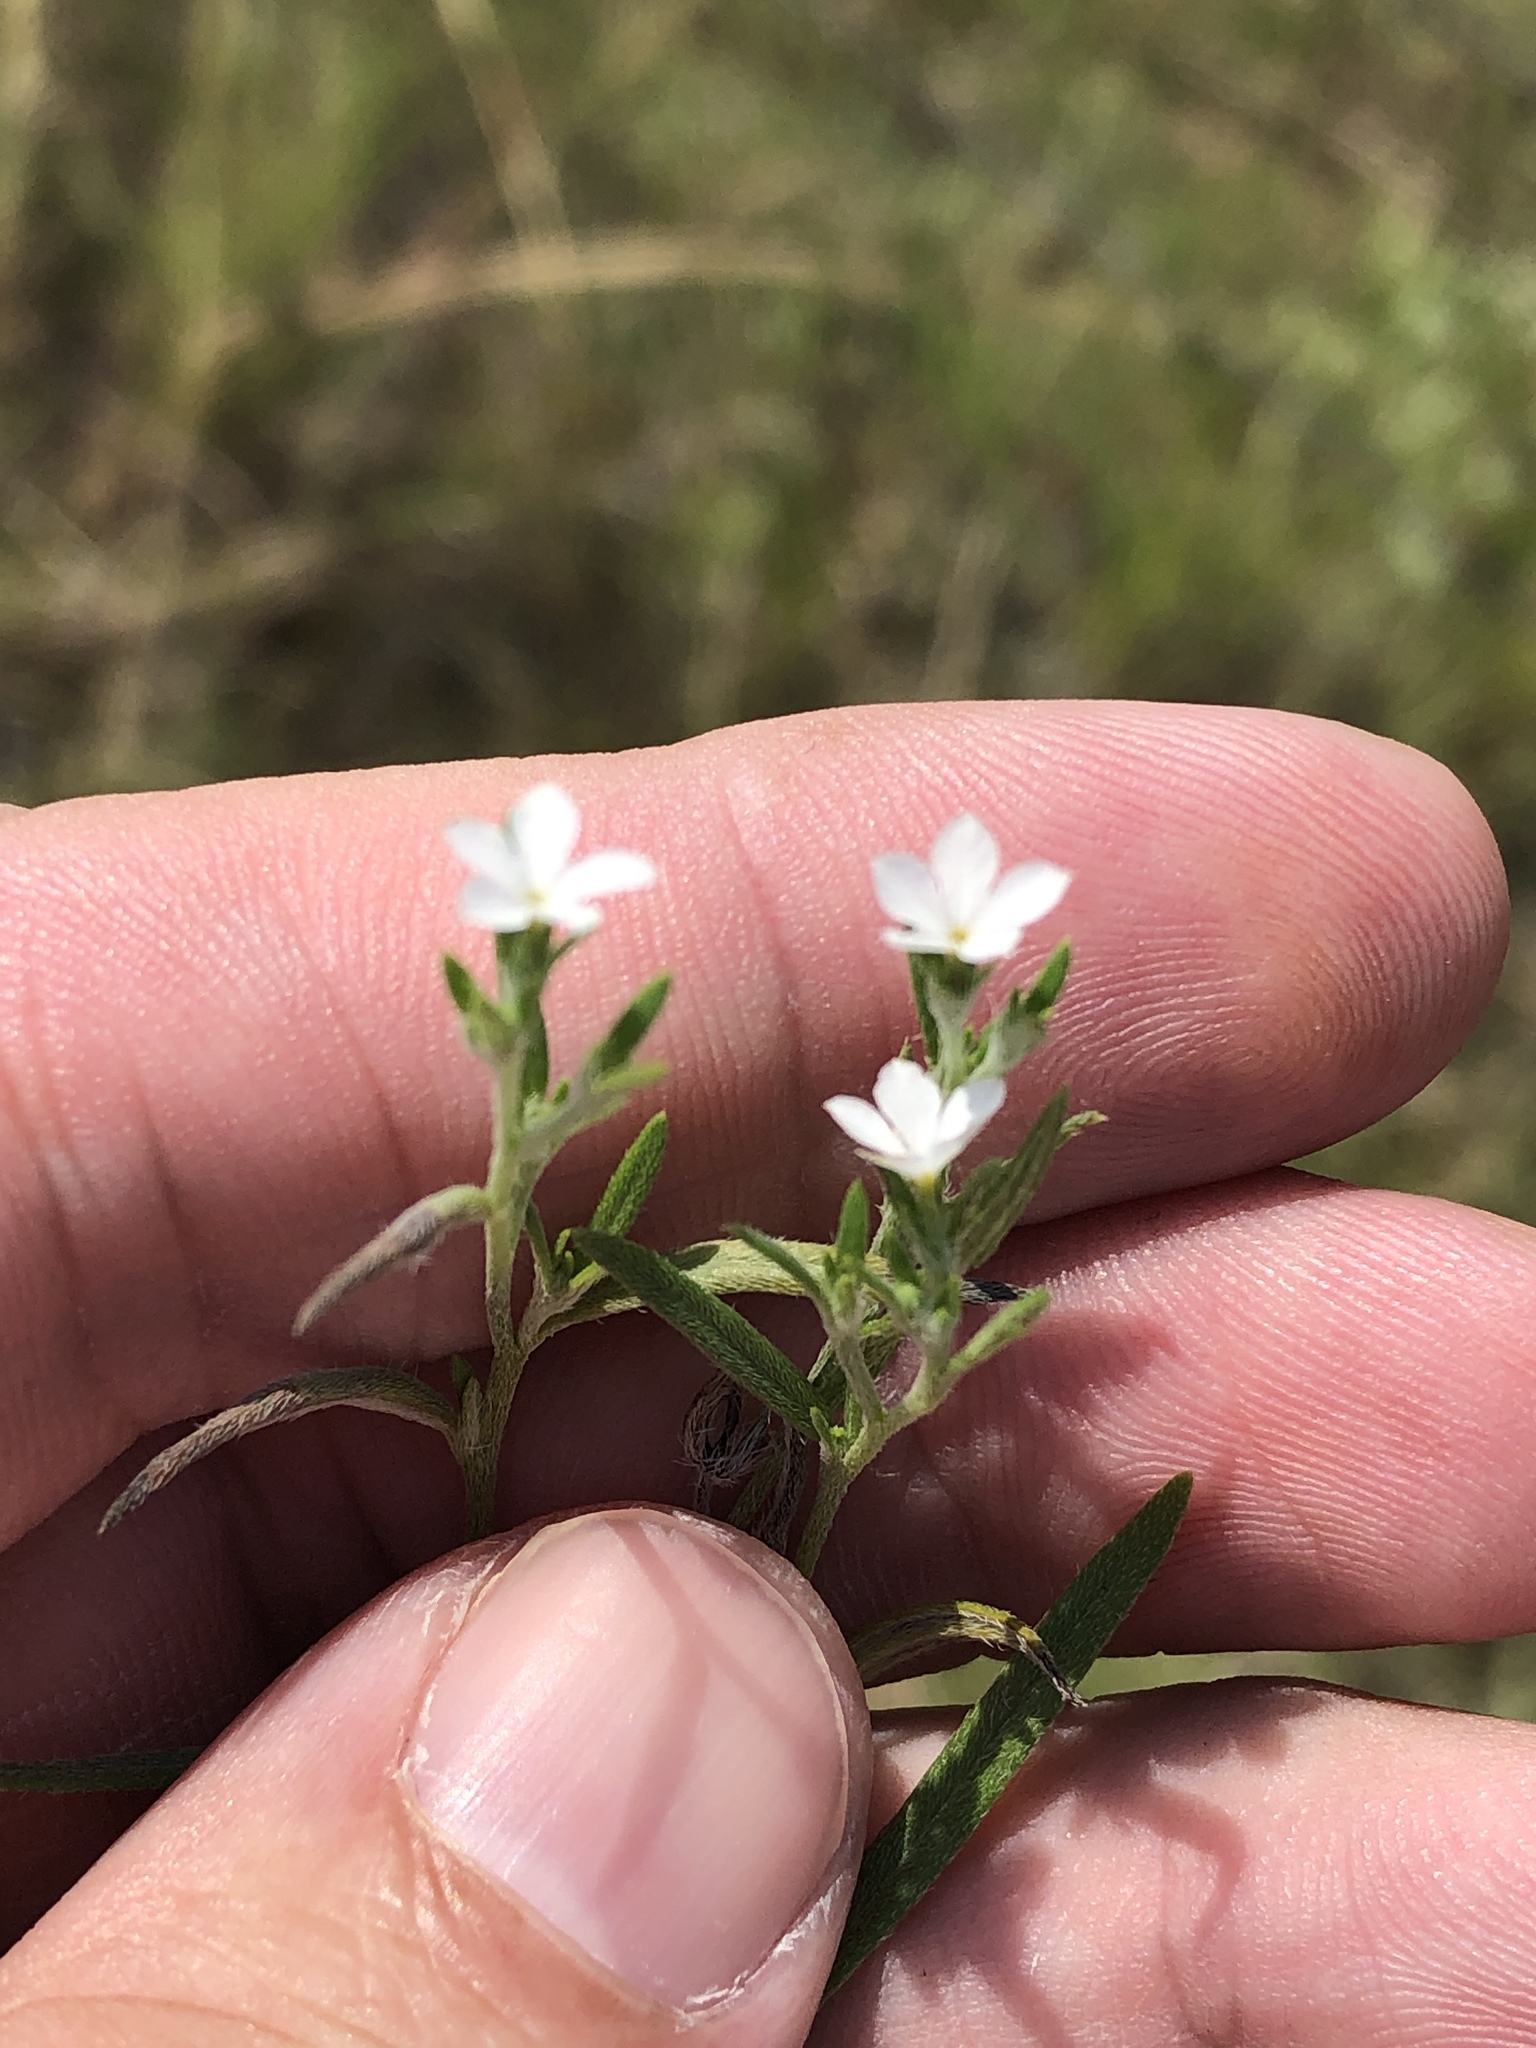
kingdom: Plantae
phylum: Tracheophyta
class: Magnoliopsida
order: Boraginales
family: Heliotropiaceae
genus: Euploca
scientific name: Euploca tenella
